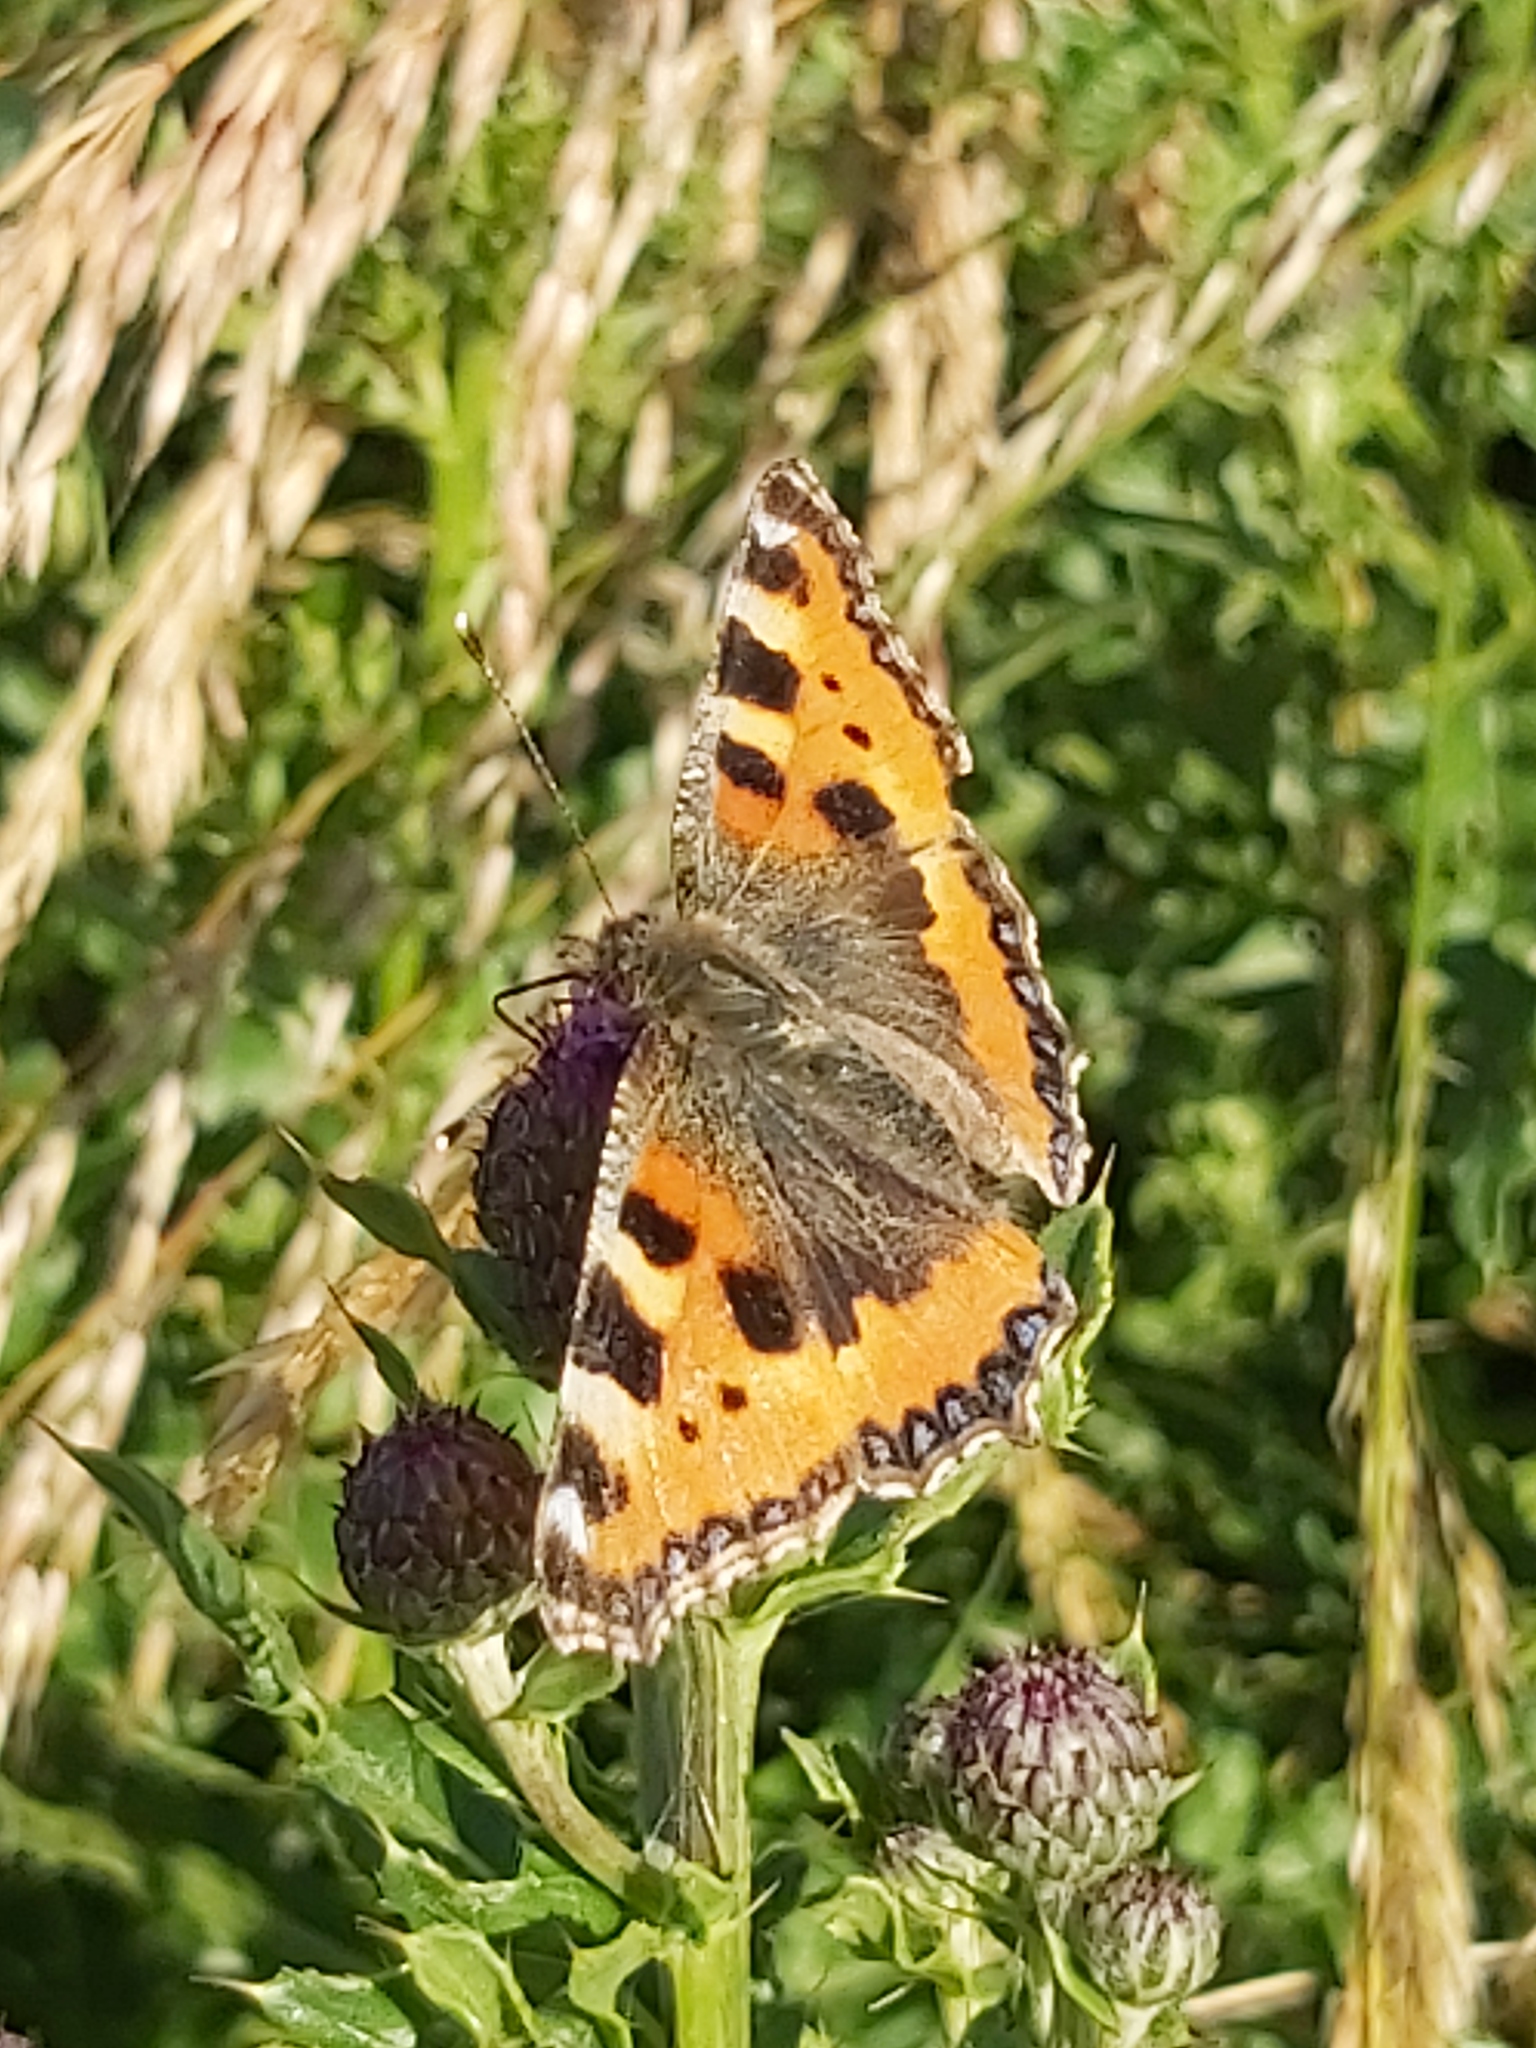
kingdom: Animalia
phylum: Arthropoda
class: Insecta
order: Lepidoptera
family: Nymphalidae
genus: Aglais
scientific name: Aglais urticae
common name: Small tortoiseshell
